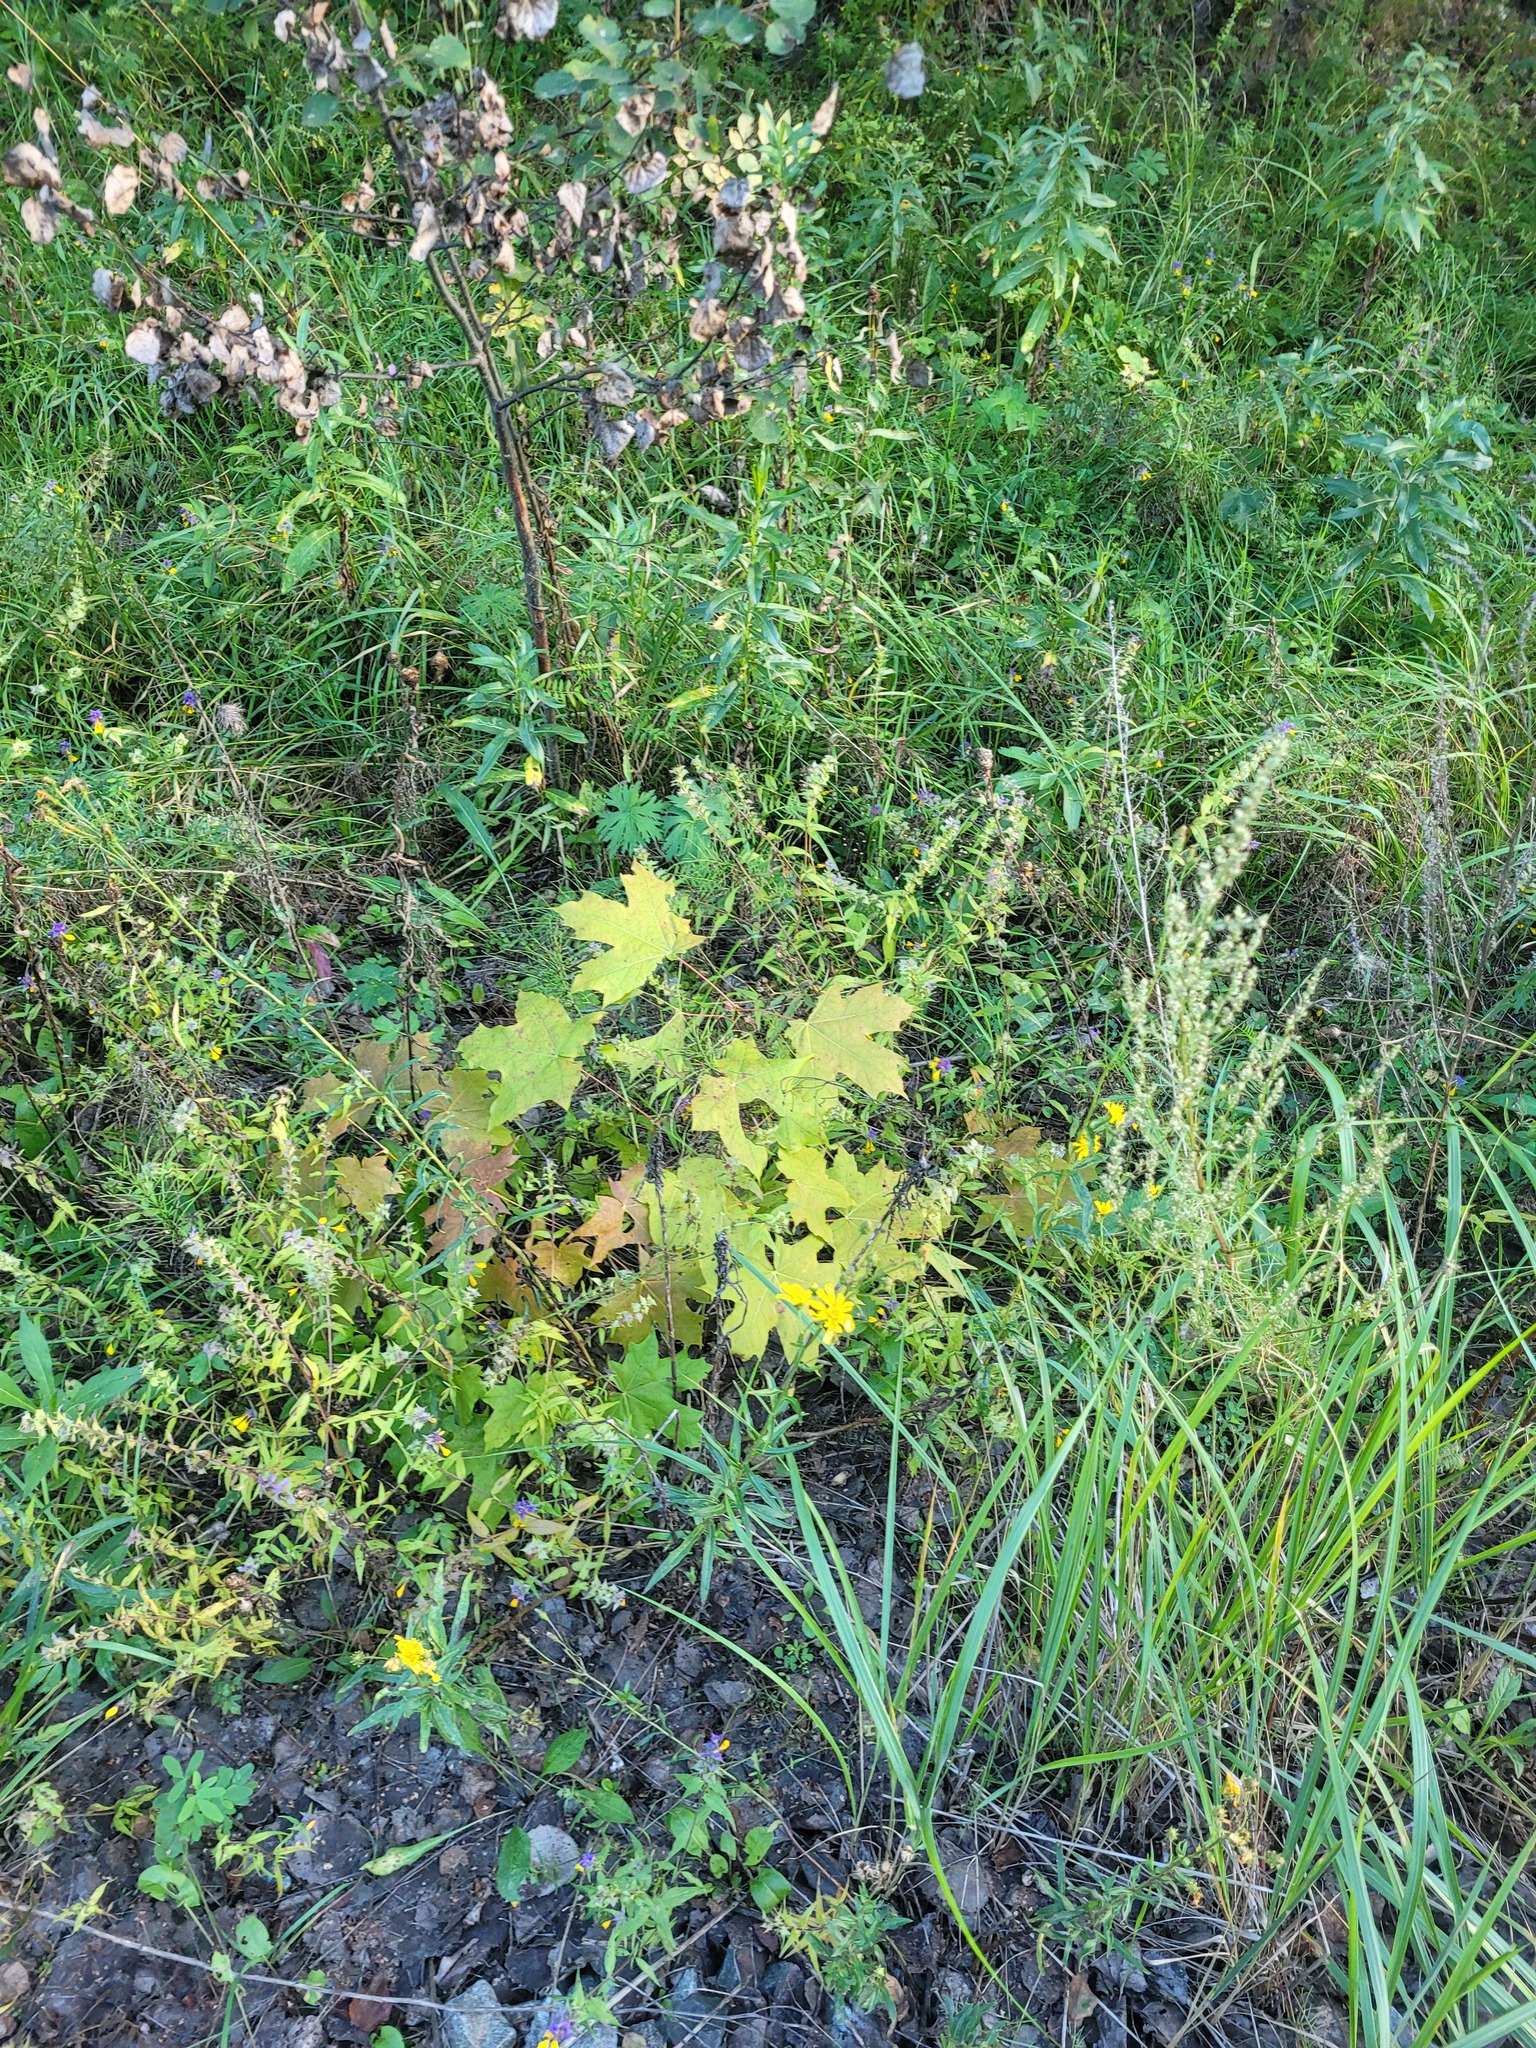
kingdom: Plantae
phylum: Tracheophyta
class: Magnoliopsida
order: Sapindales
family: Sapindaceae
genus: Acer
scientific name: Acer platanoides
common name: Norway maple
